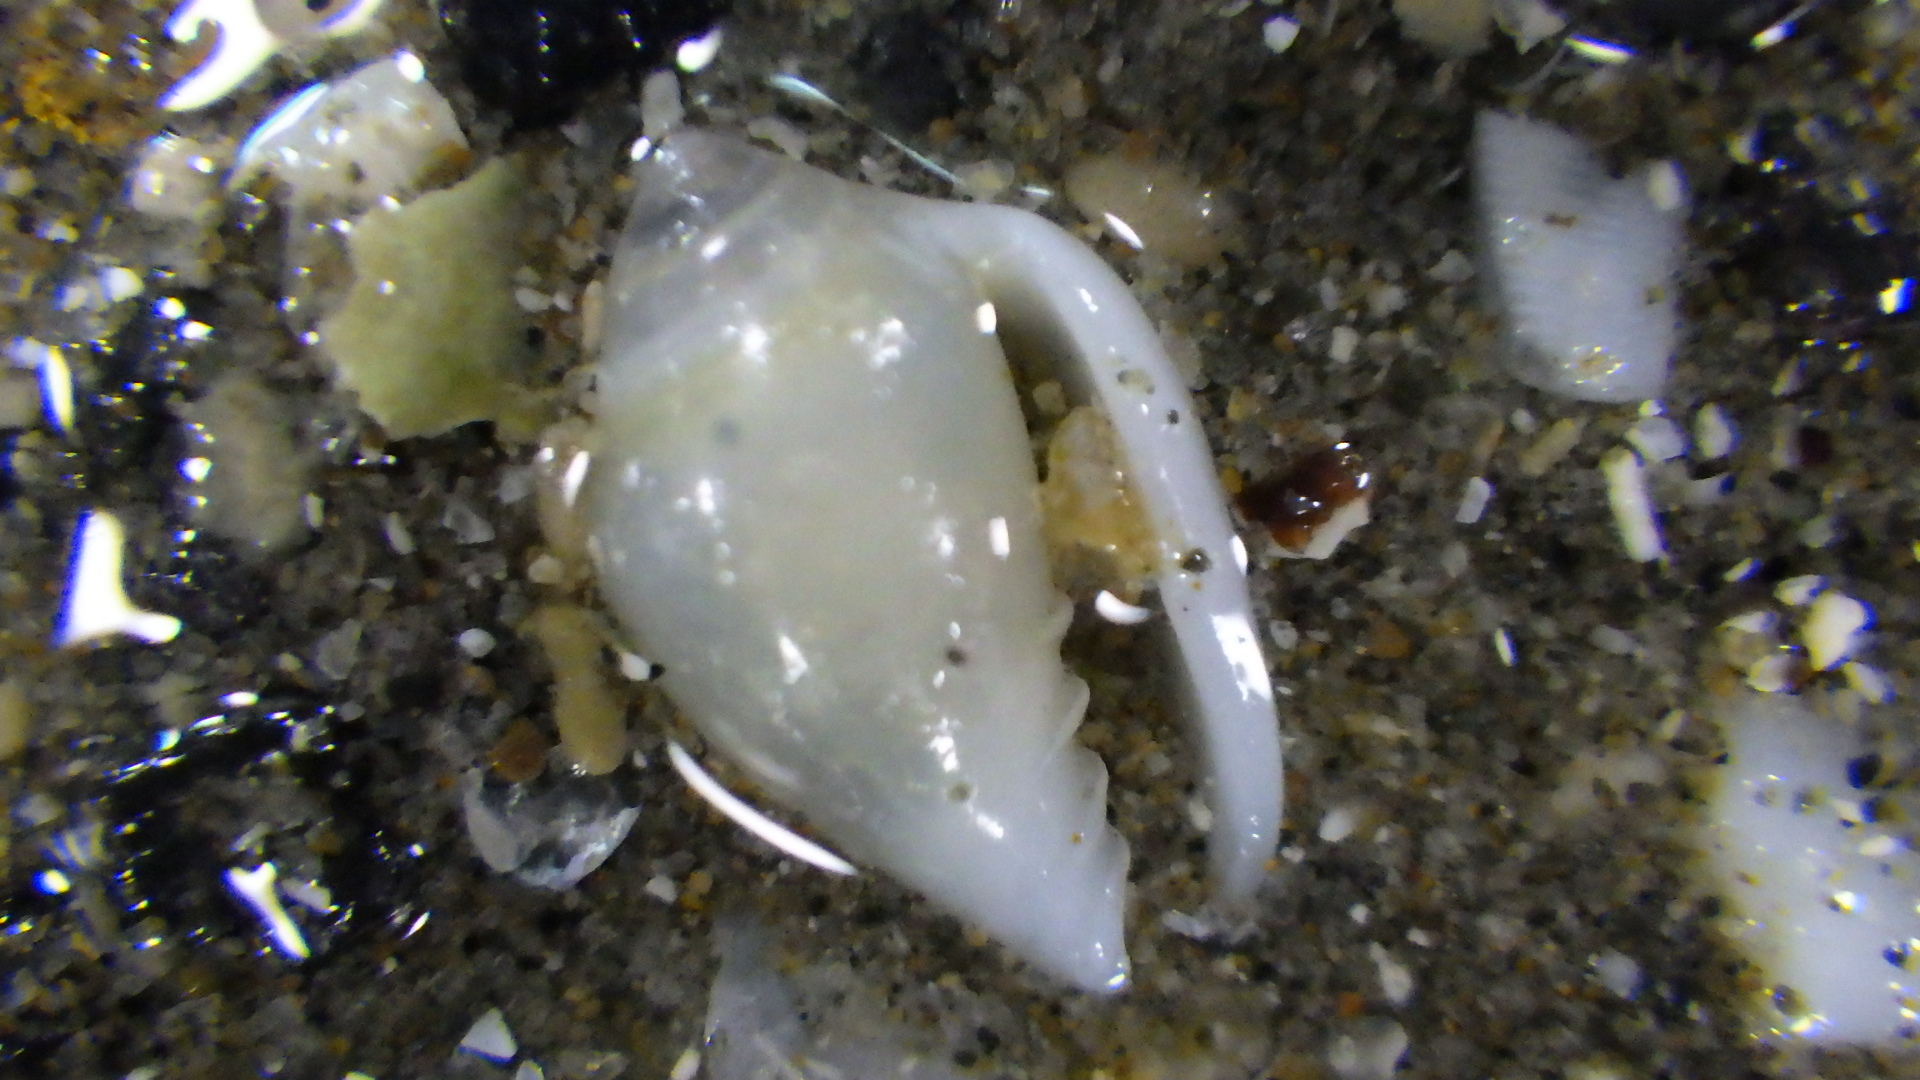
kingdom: Animalia
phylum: Mollusca
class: Gastropoda
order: Neogastropoda
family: Marginellidae
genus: Mesoginella
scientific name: Mesoginella koma
